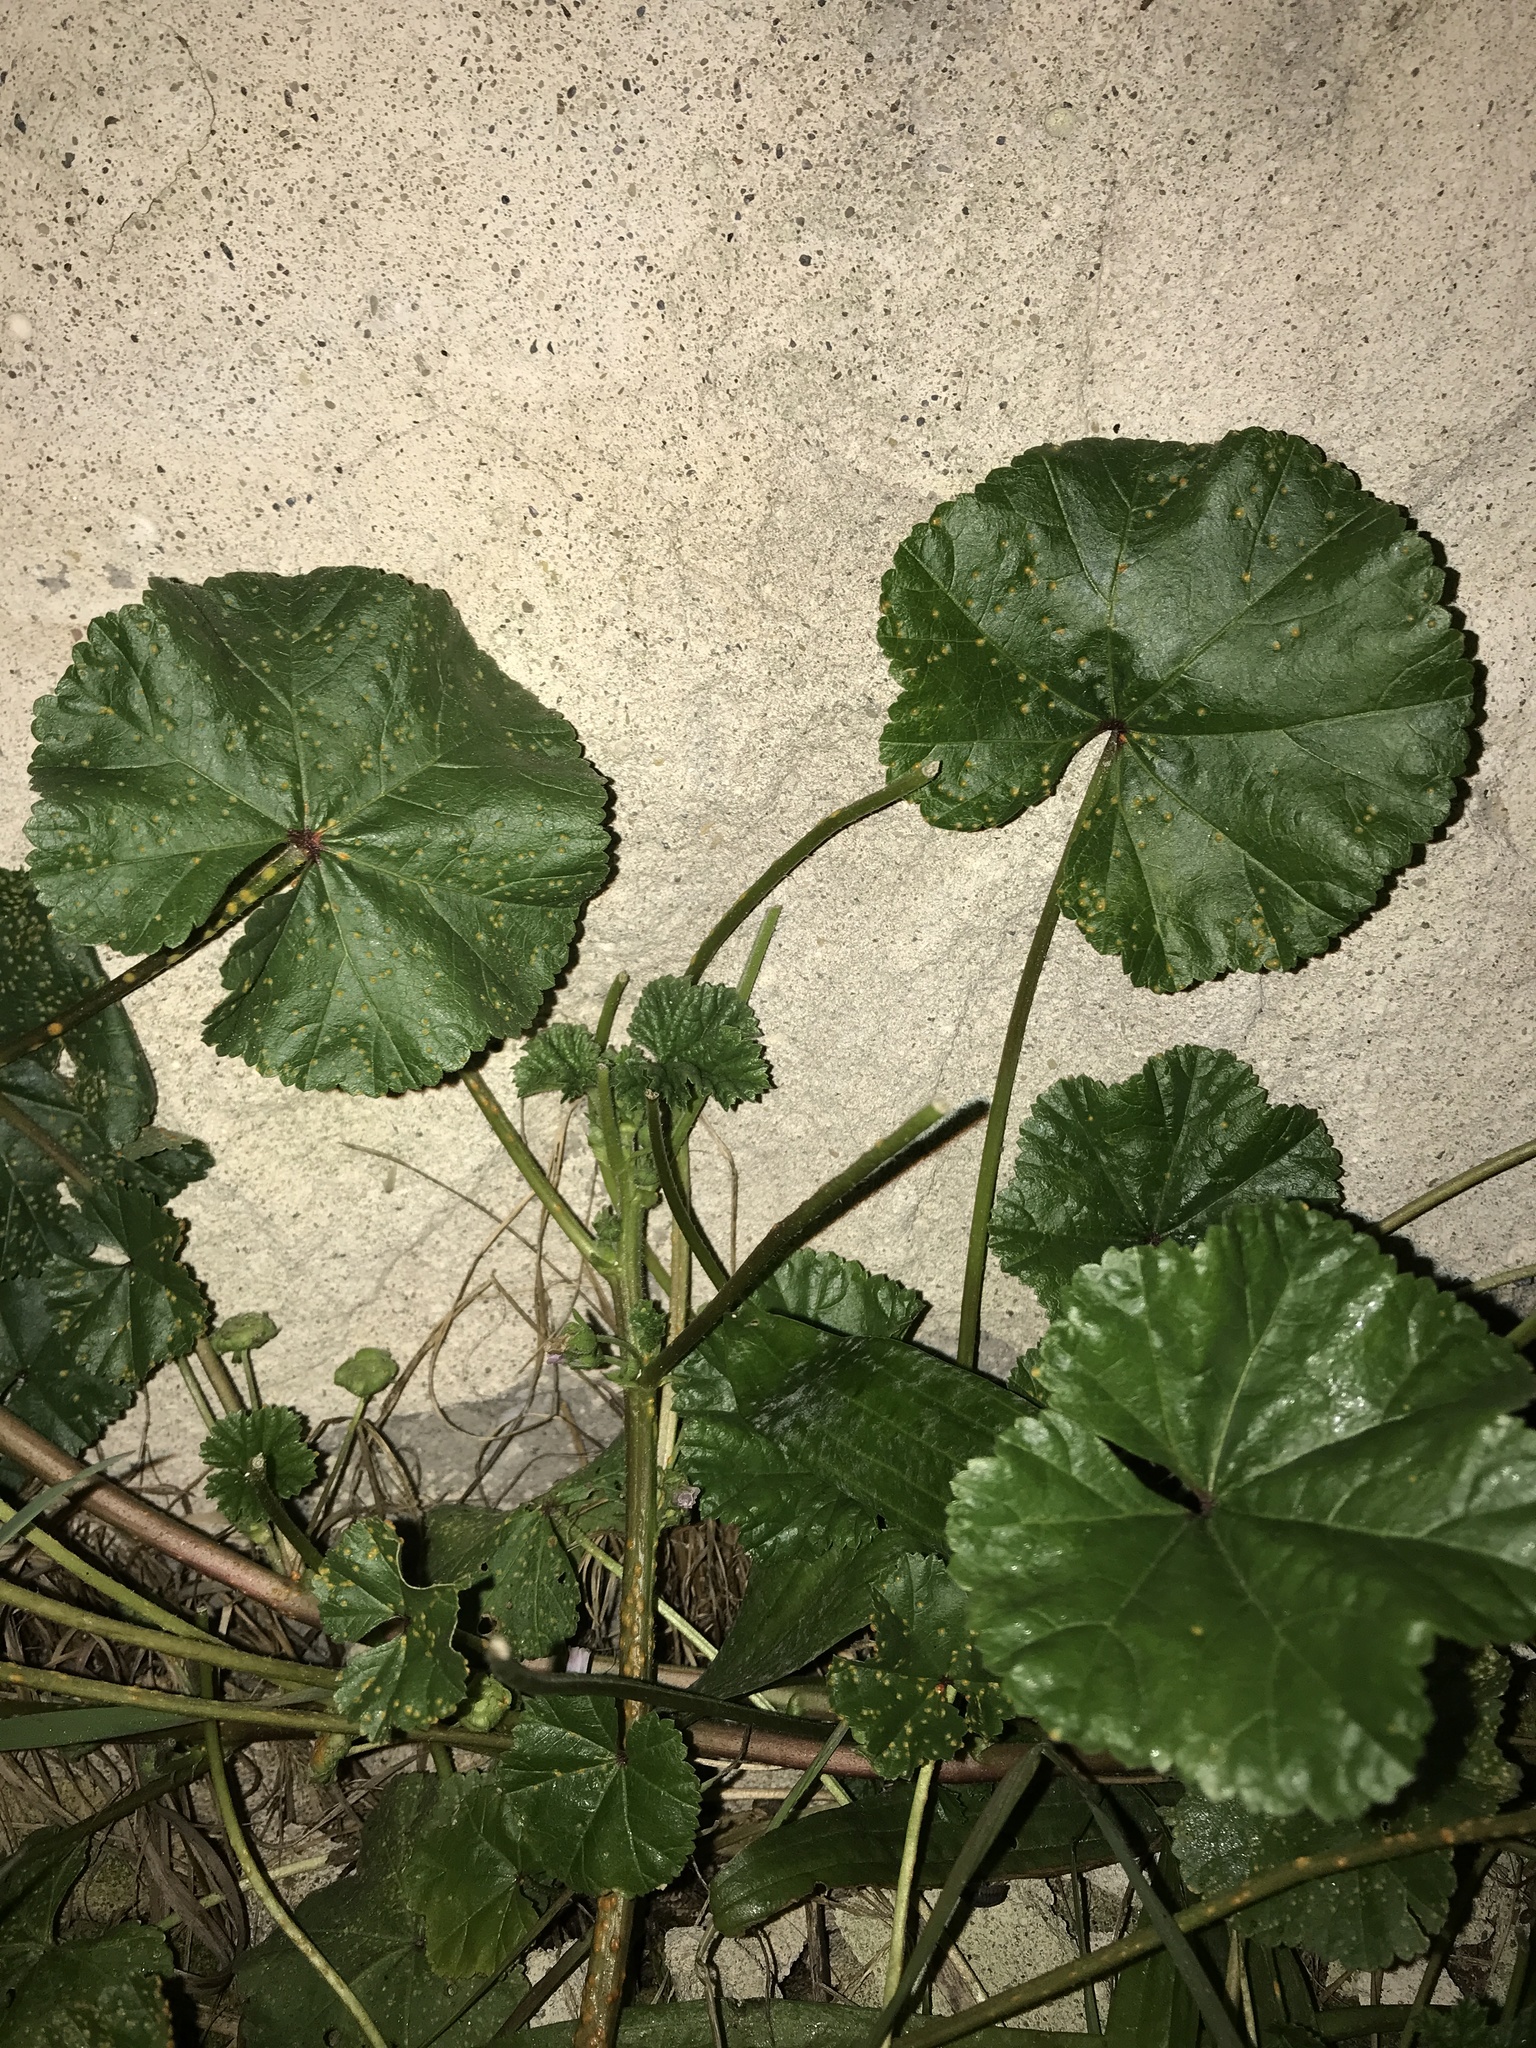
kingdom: Plantae
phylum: Tracheophyta
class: Magnoliopsida
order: Malvales
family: Malvaceae
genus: Malva
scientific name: Malva neglecta
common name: Common mallow
